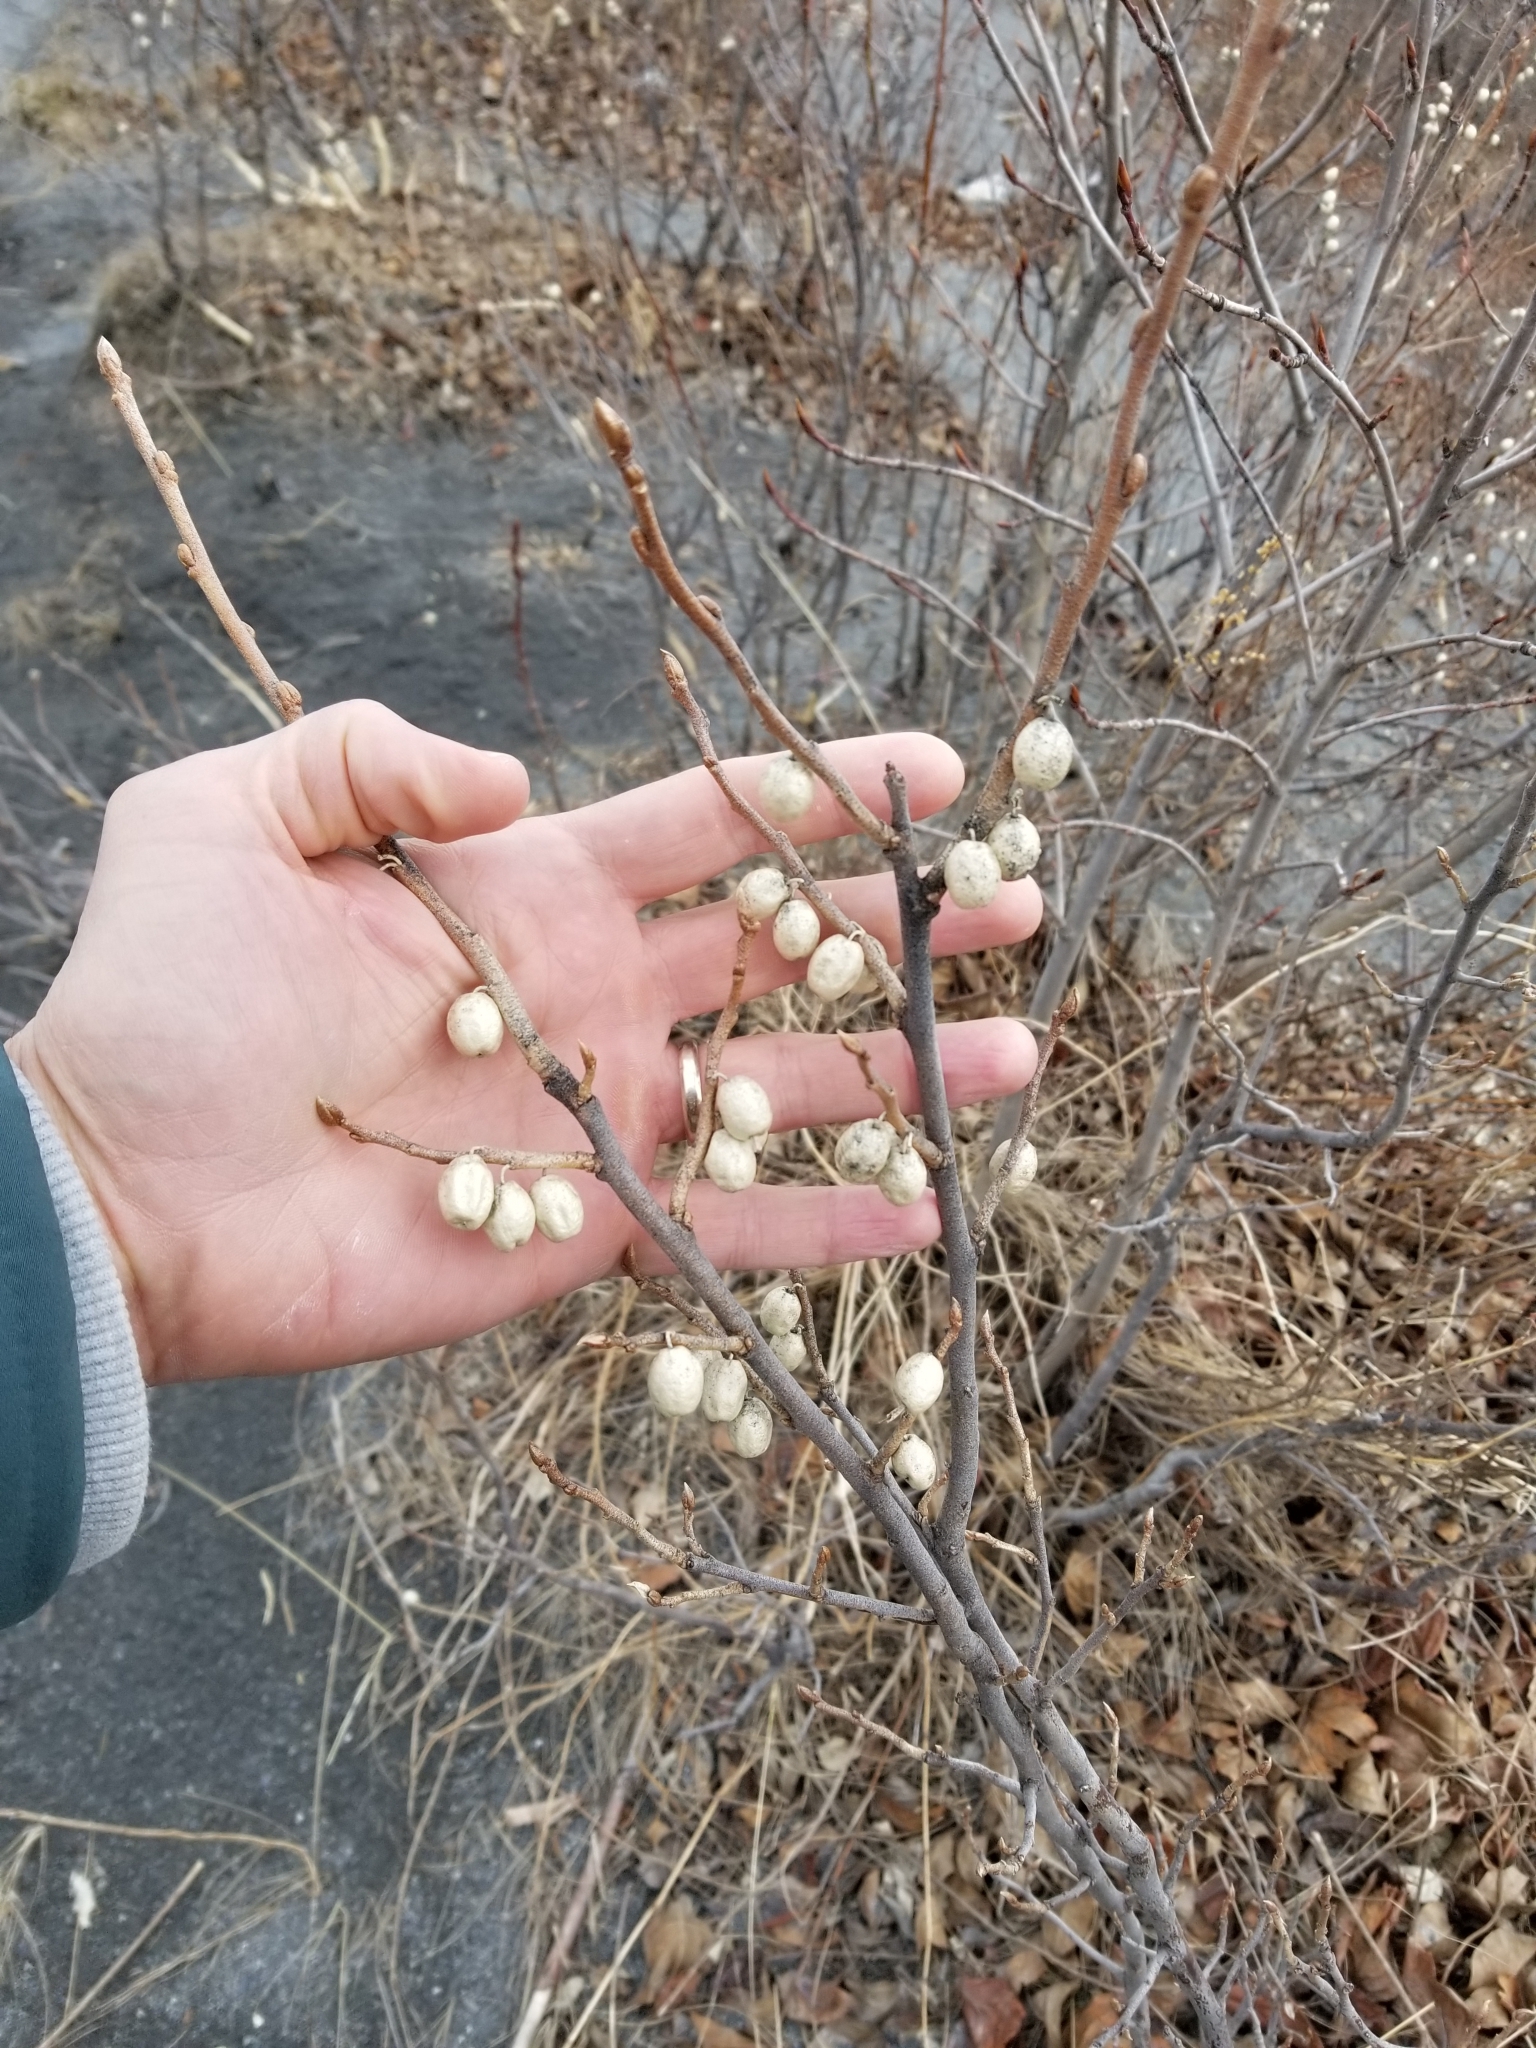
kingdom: Plantae
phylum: Tracheophyta
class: Magnoliopsida
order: Rosales
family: Elaeagnaceae
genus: Elaeagnus
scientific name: Elaeagnus commutata
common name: Silverberry
